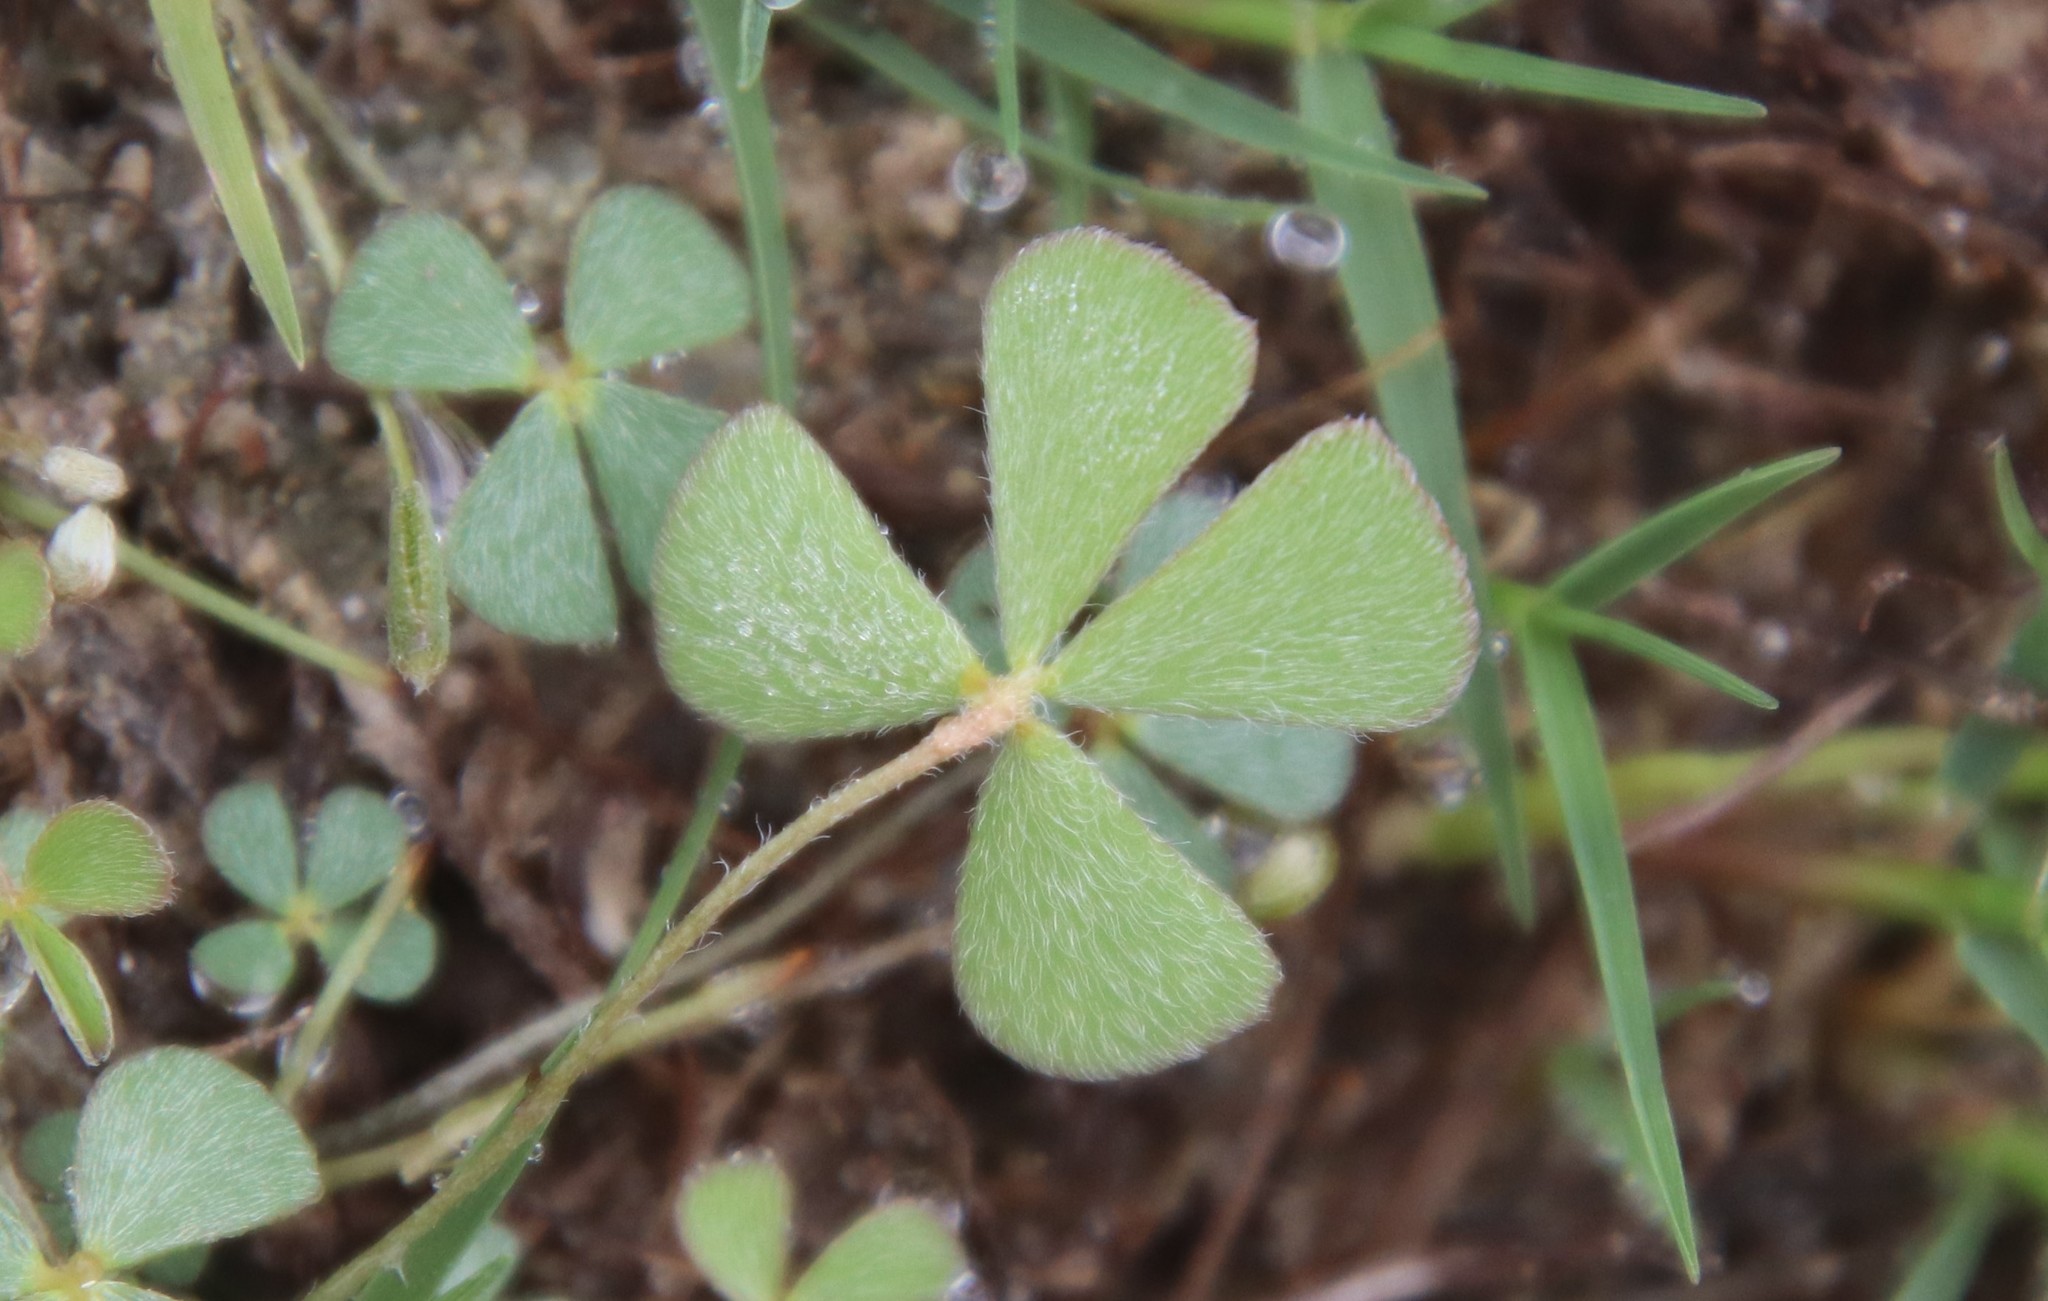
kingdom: Plantae
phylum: Tracheophyta
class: Polypodiopsida
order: Salviniales
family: Marsileaceae
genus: Marsilea
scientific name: Marsilea vestita
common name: Hooked-pepperwort
